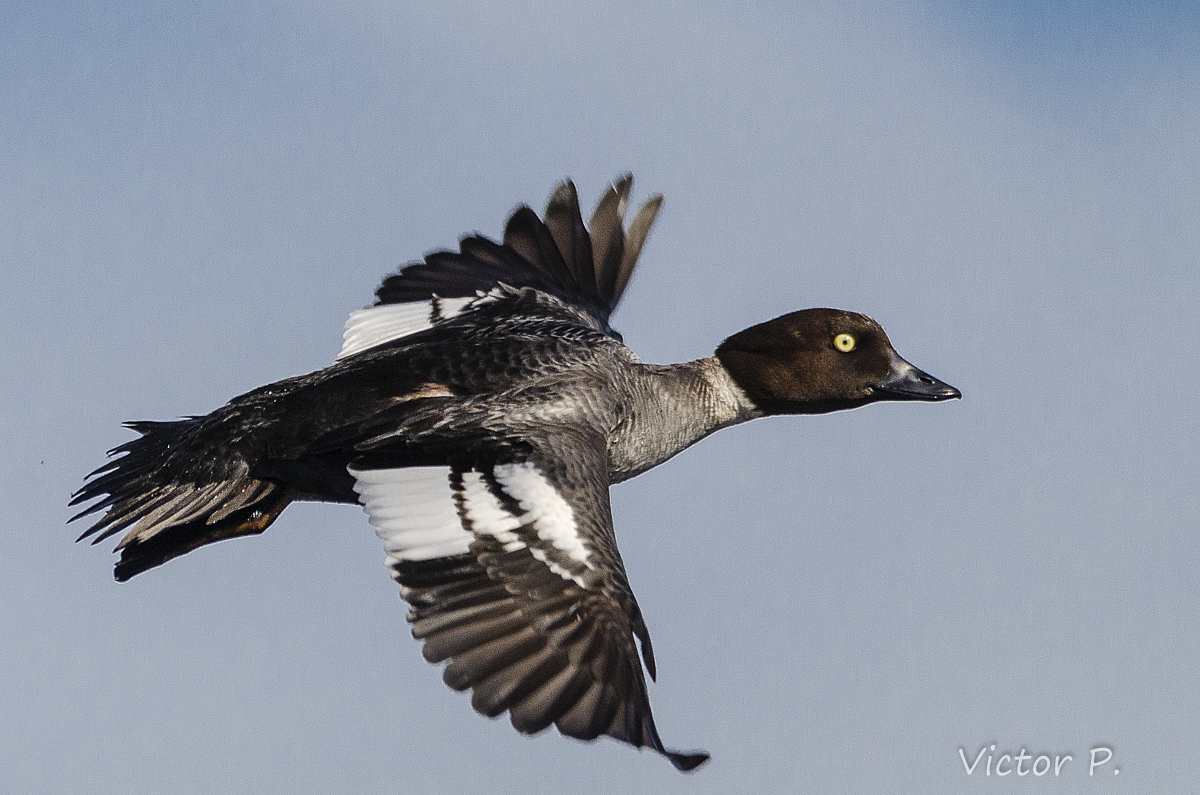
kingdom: Animalia
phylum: Chordata
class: Aves
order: Anseriformes
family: Anatidae
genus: Bucephala
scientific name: Bucephala clangula
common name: Common goldeneye
